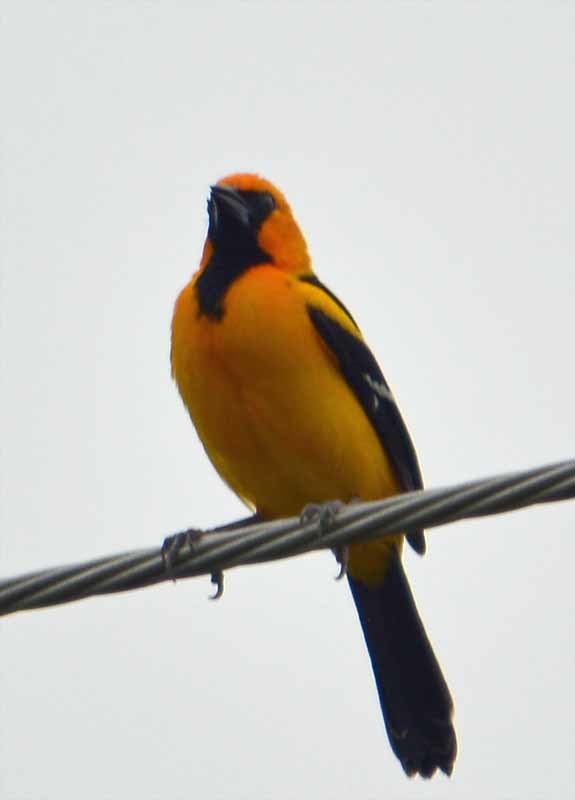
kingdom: Animalia
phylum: Chordata
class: Aves
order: Passeriformes
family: Icteridae
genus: Icterus
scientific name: Icterus gularis
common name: Altamira oriole
